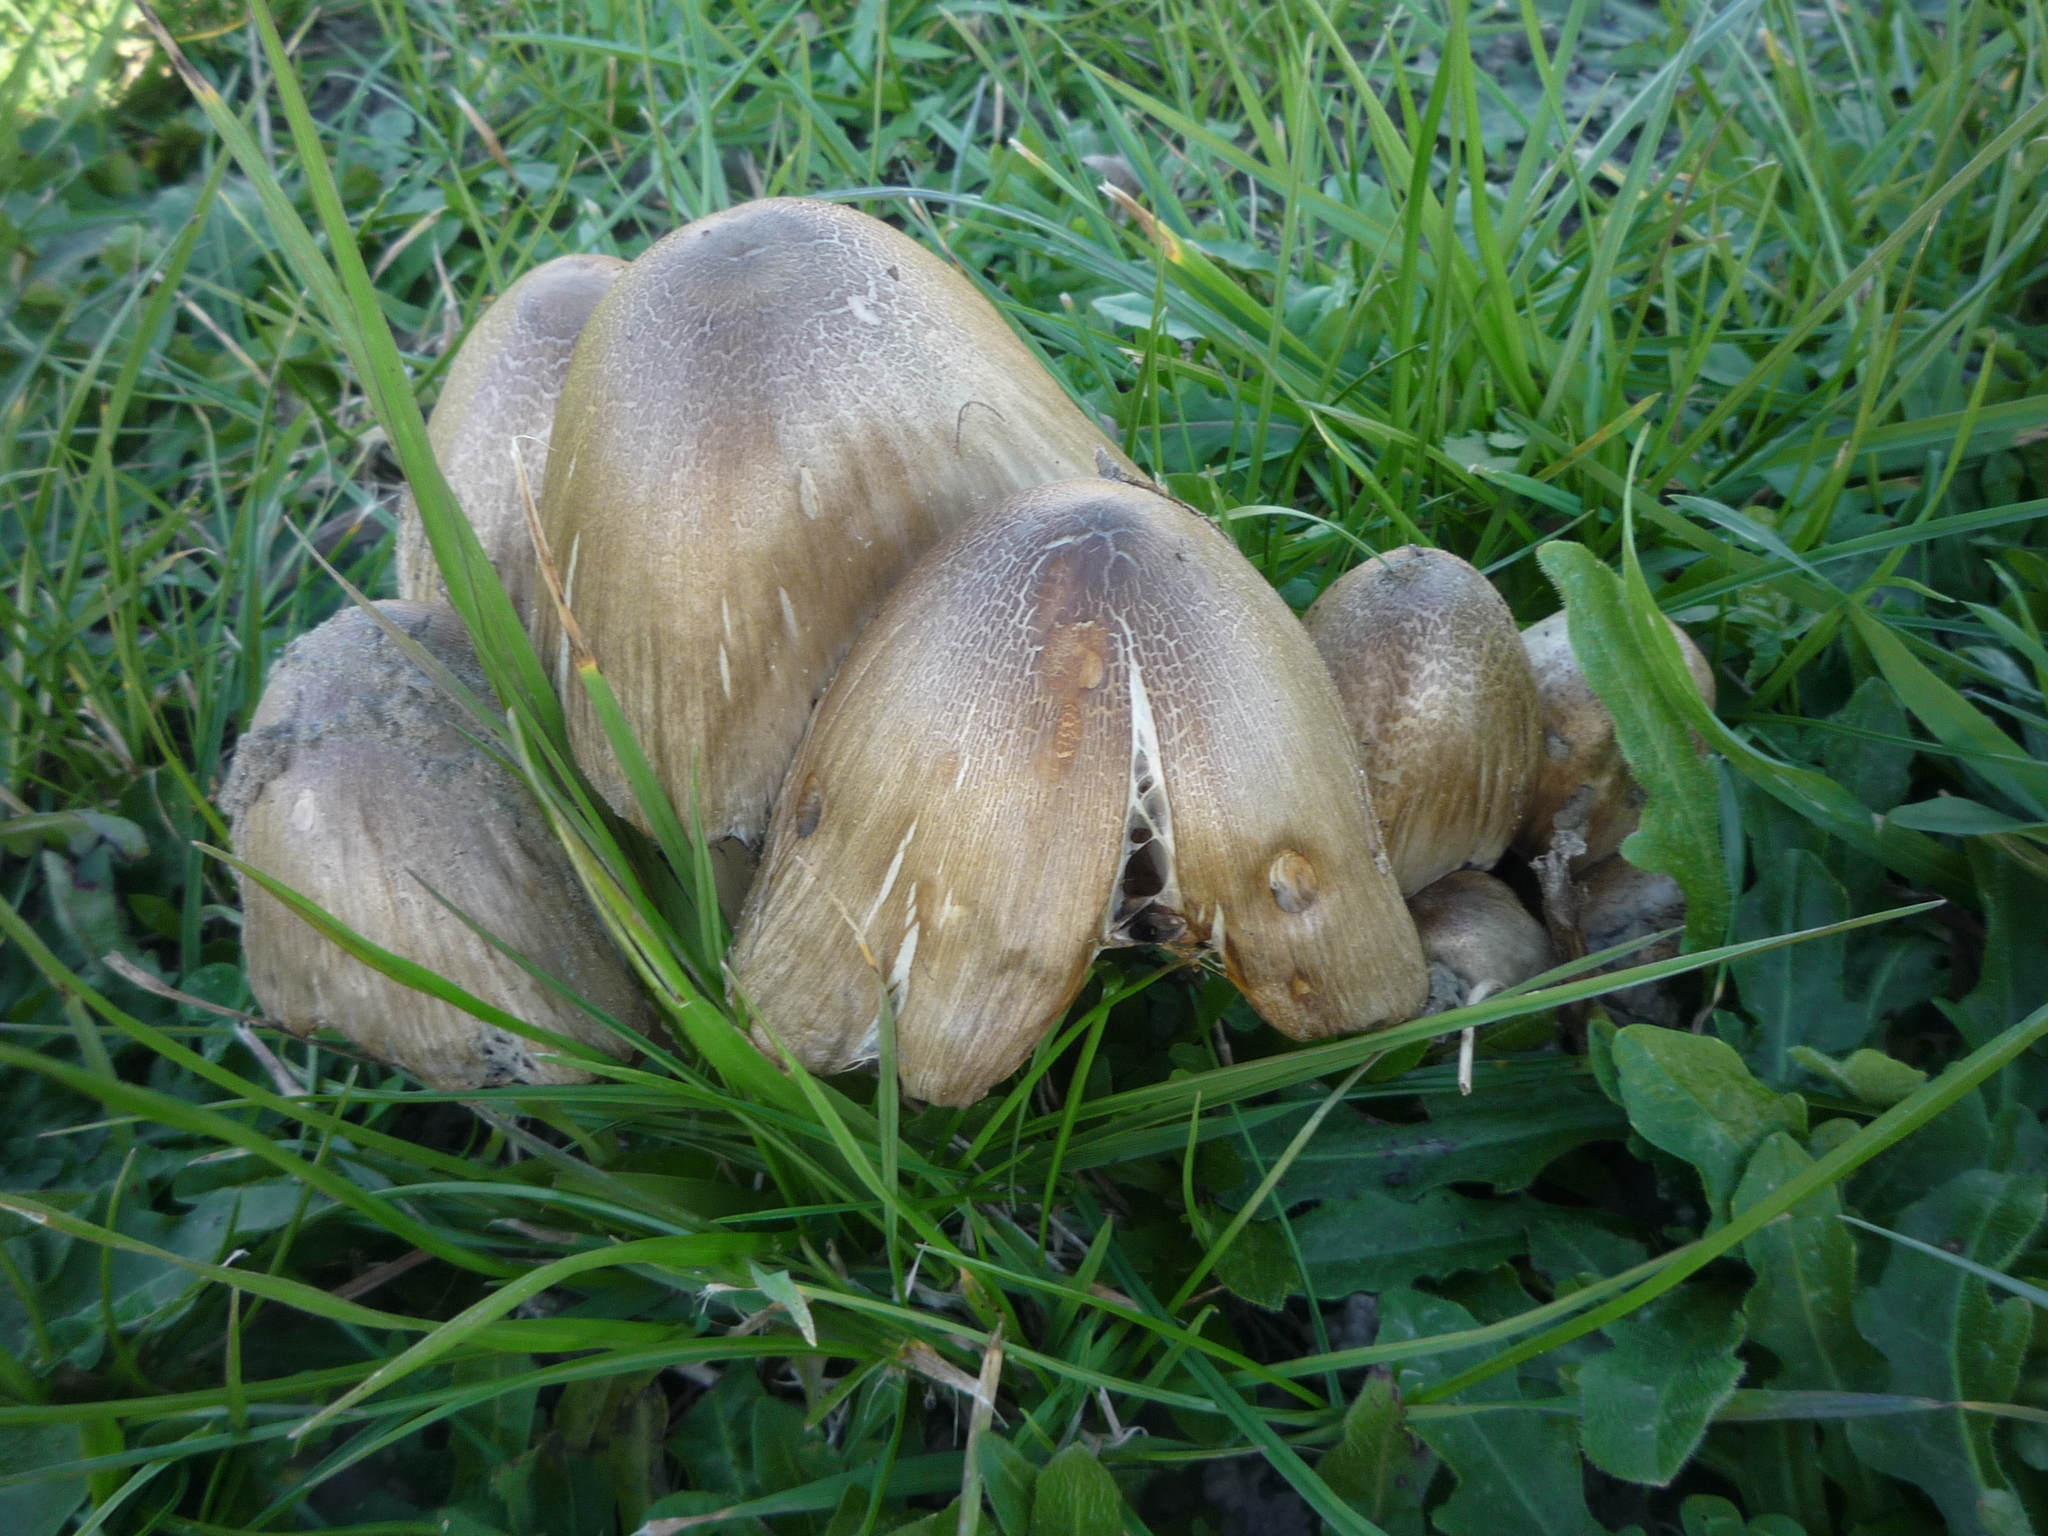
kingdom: Fungi
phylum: Basidiomycota
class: Agaricomycetes
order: Agaricales
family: Psathyrellaceae
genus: Coprinopsis
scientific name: Coprinopsis atramentaria
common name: Common ink-cap
